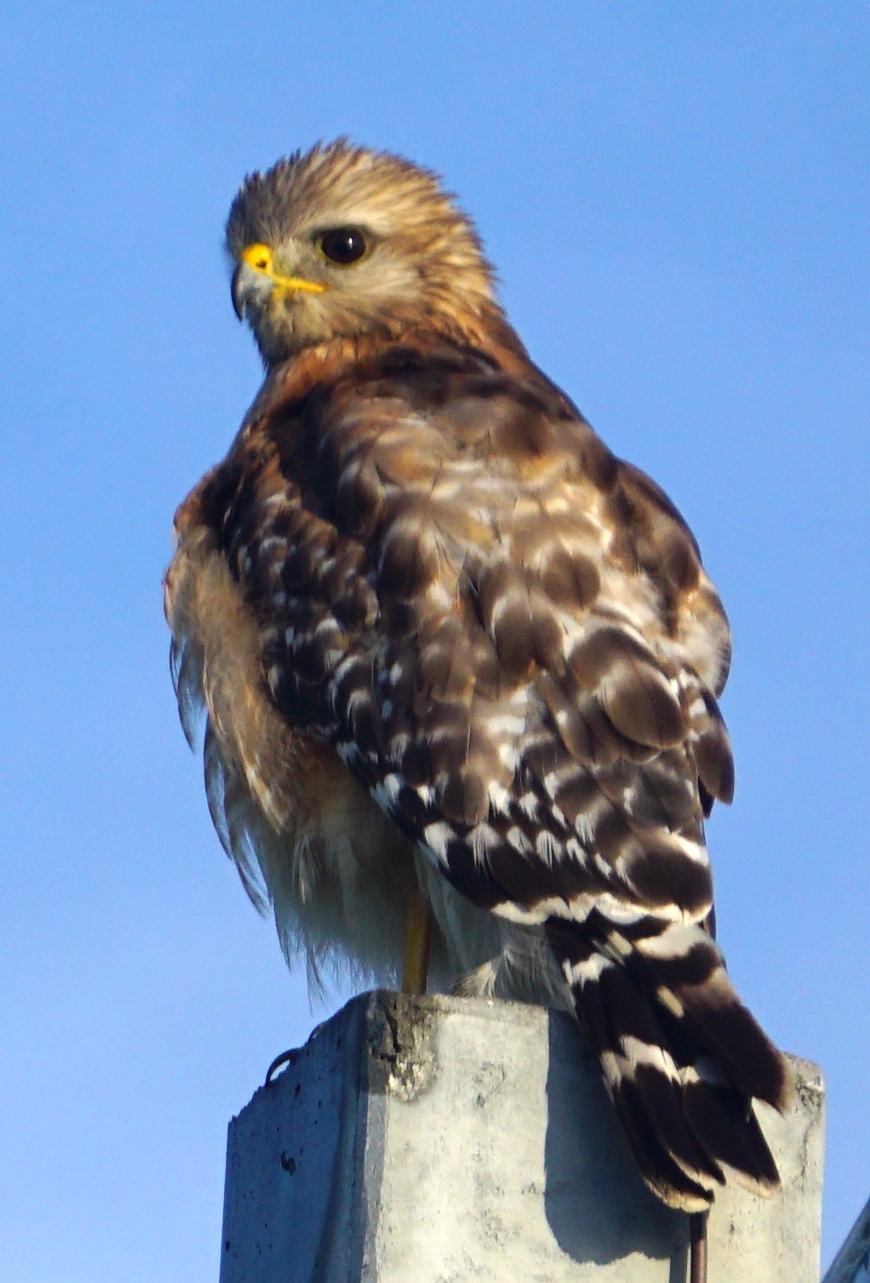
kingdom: Animalia
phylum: Chordata
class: Aves
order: Accipitriformes
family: Accipitridae
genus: Buteo
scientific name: Buteo lineatus
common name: Red-shouldered hawk
